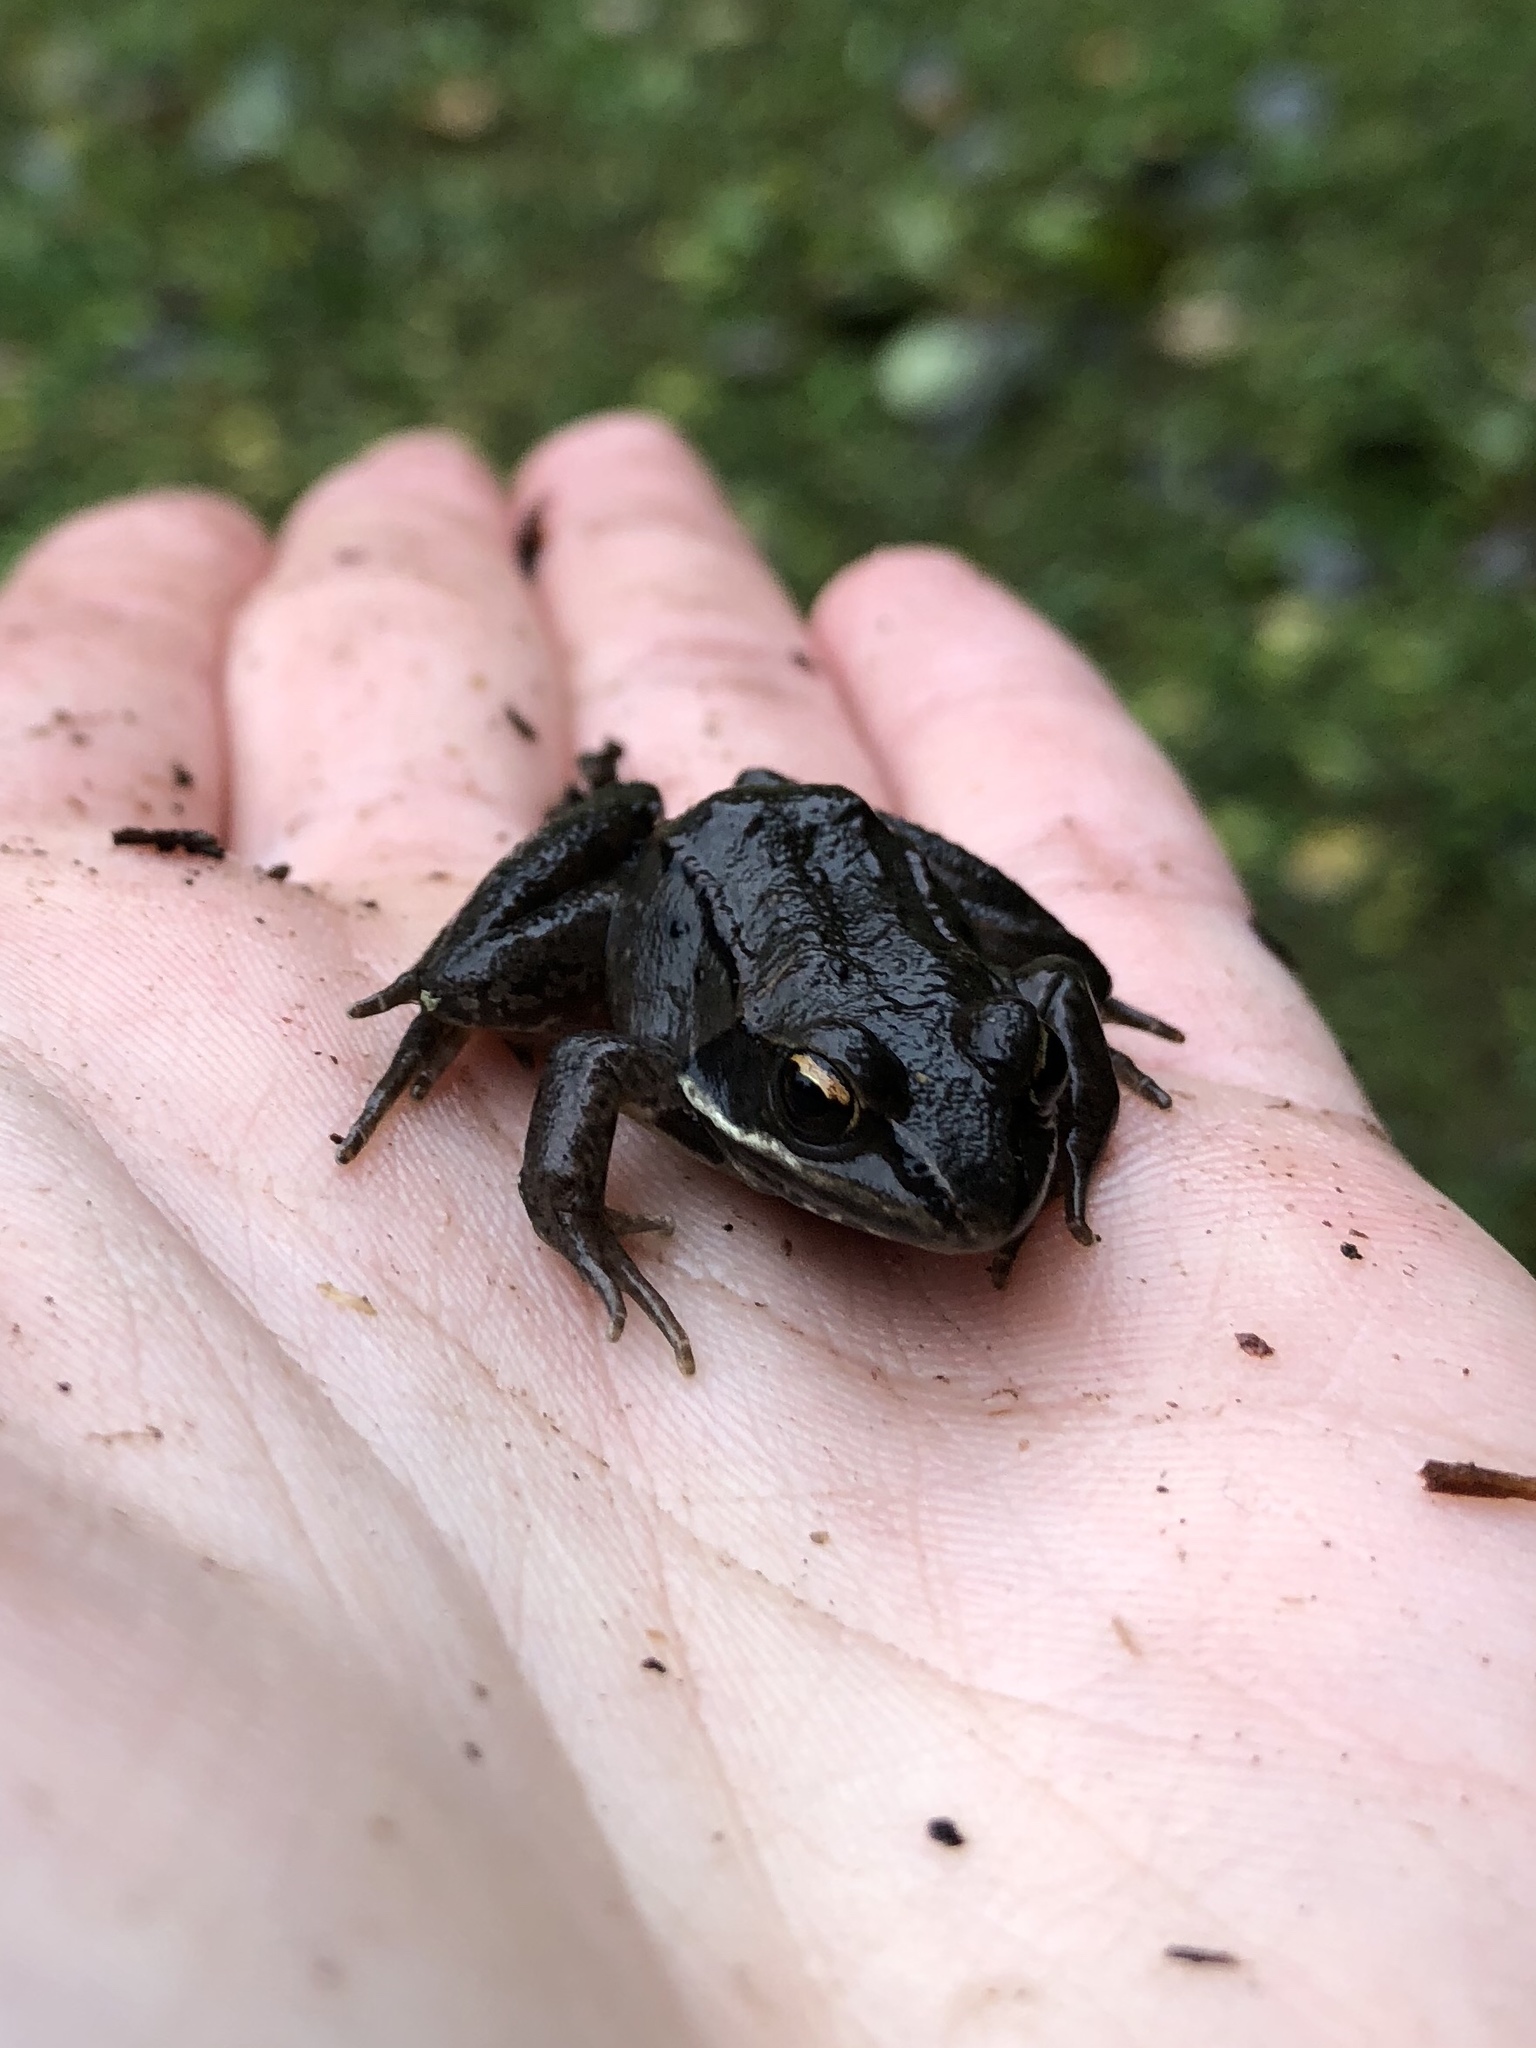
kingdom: Animalia
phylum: Chordata
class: Amphibia
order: Anura
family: Ranidae
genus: Lithobates
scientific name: Lithobates sylvaticus
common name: Wood frog
